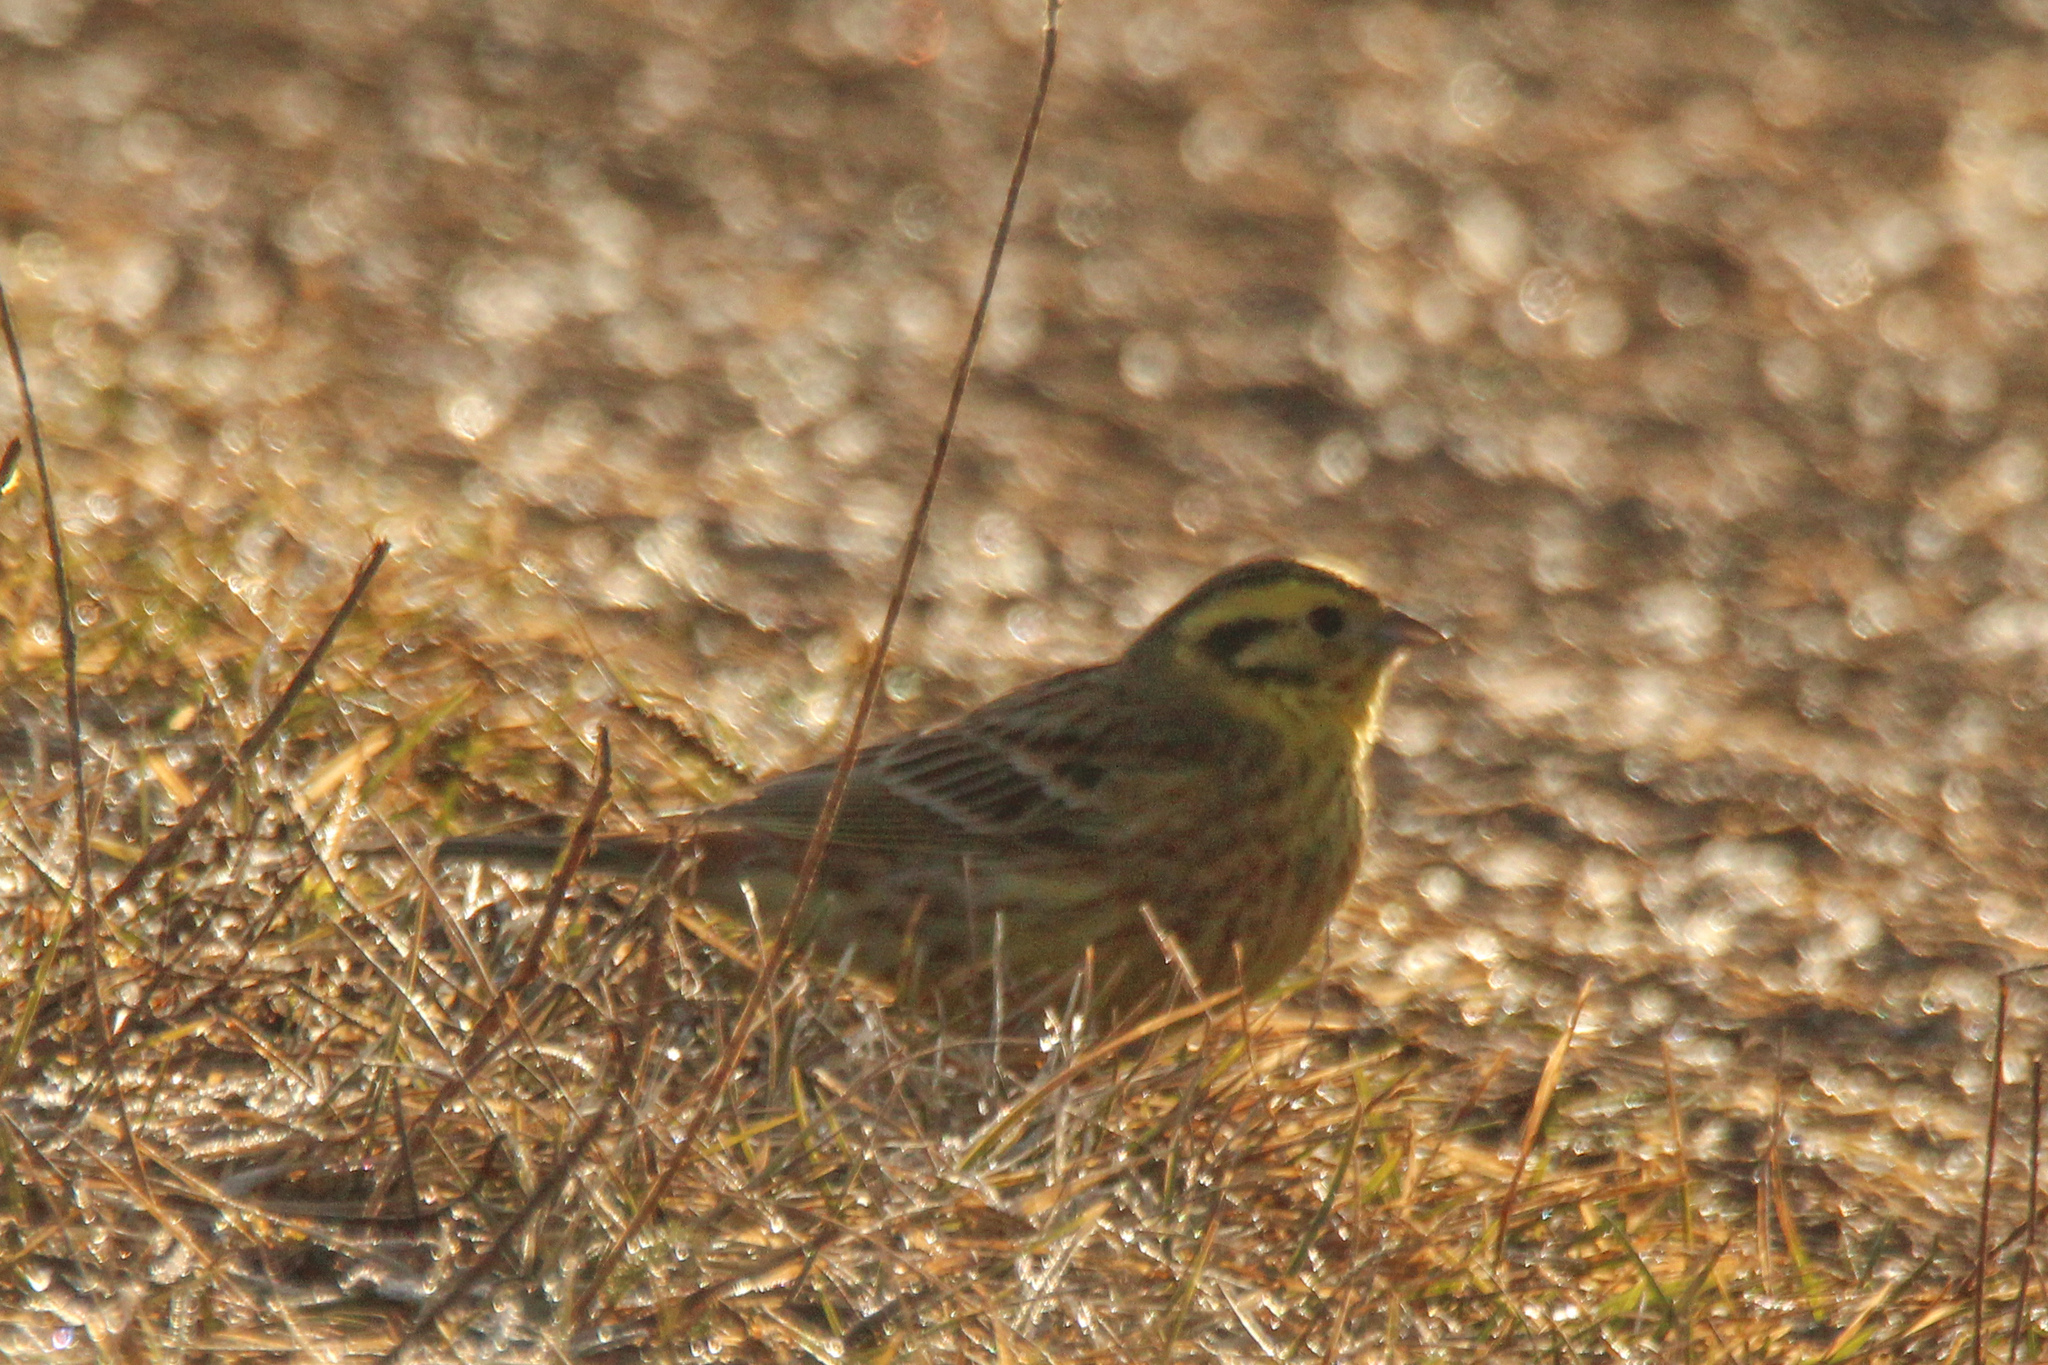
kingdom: Animalia
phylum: Chordata
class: Aves
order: Passeriformes
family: Emberizidae
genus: Emberiza
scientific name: Emberiza
